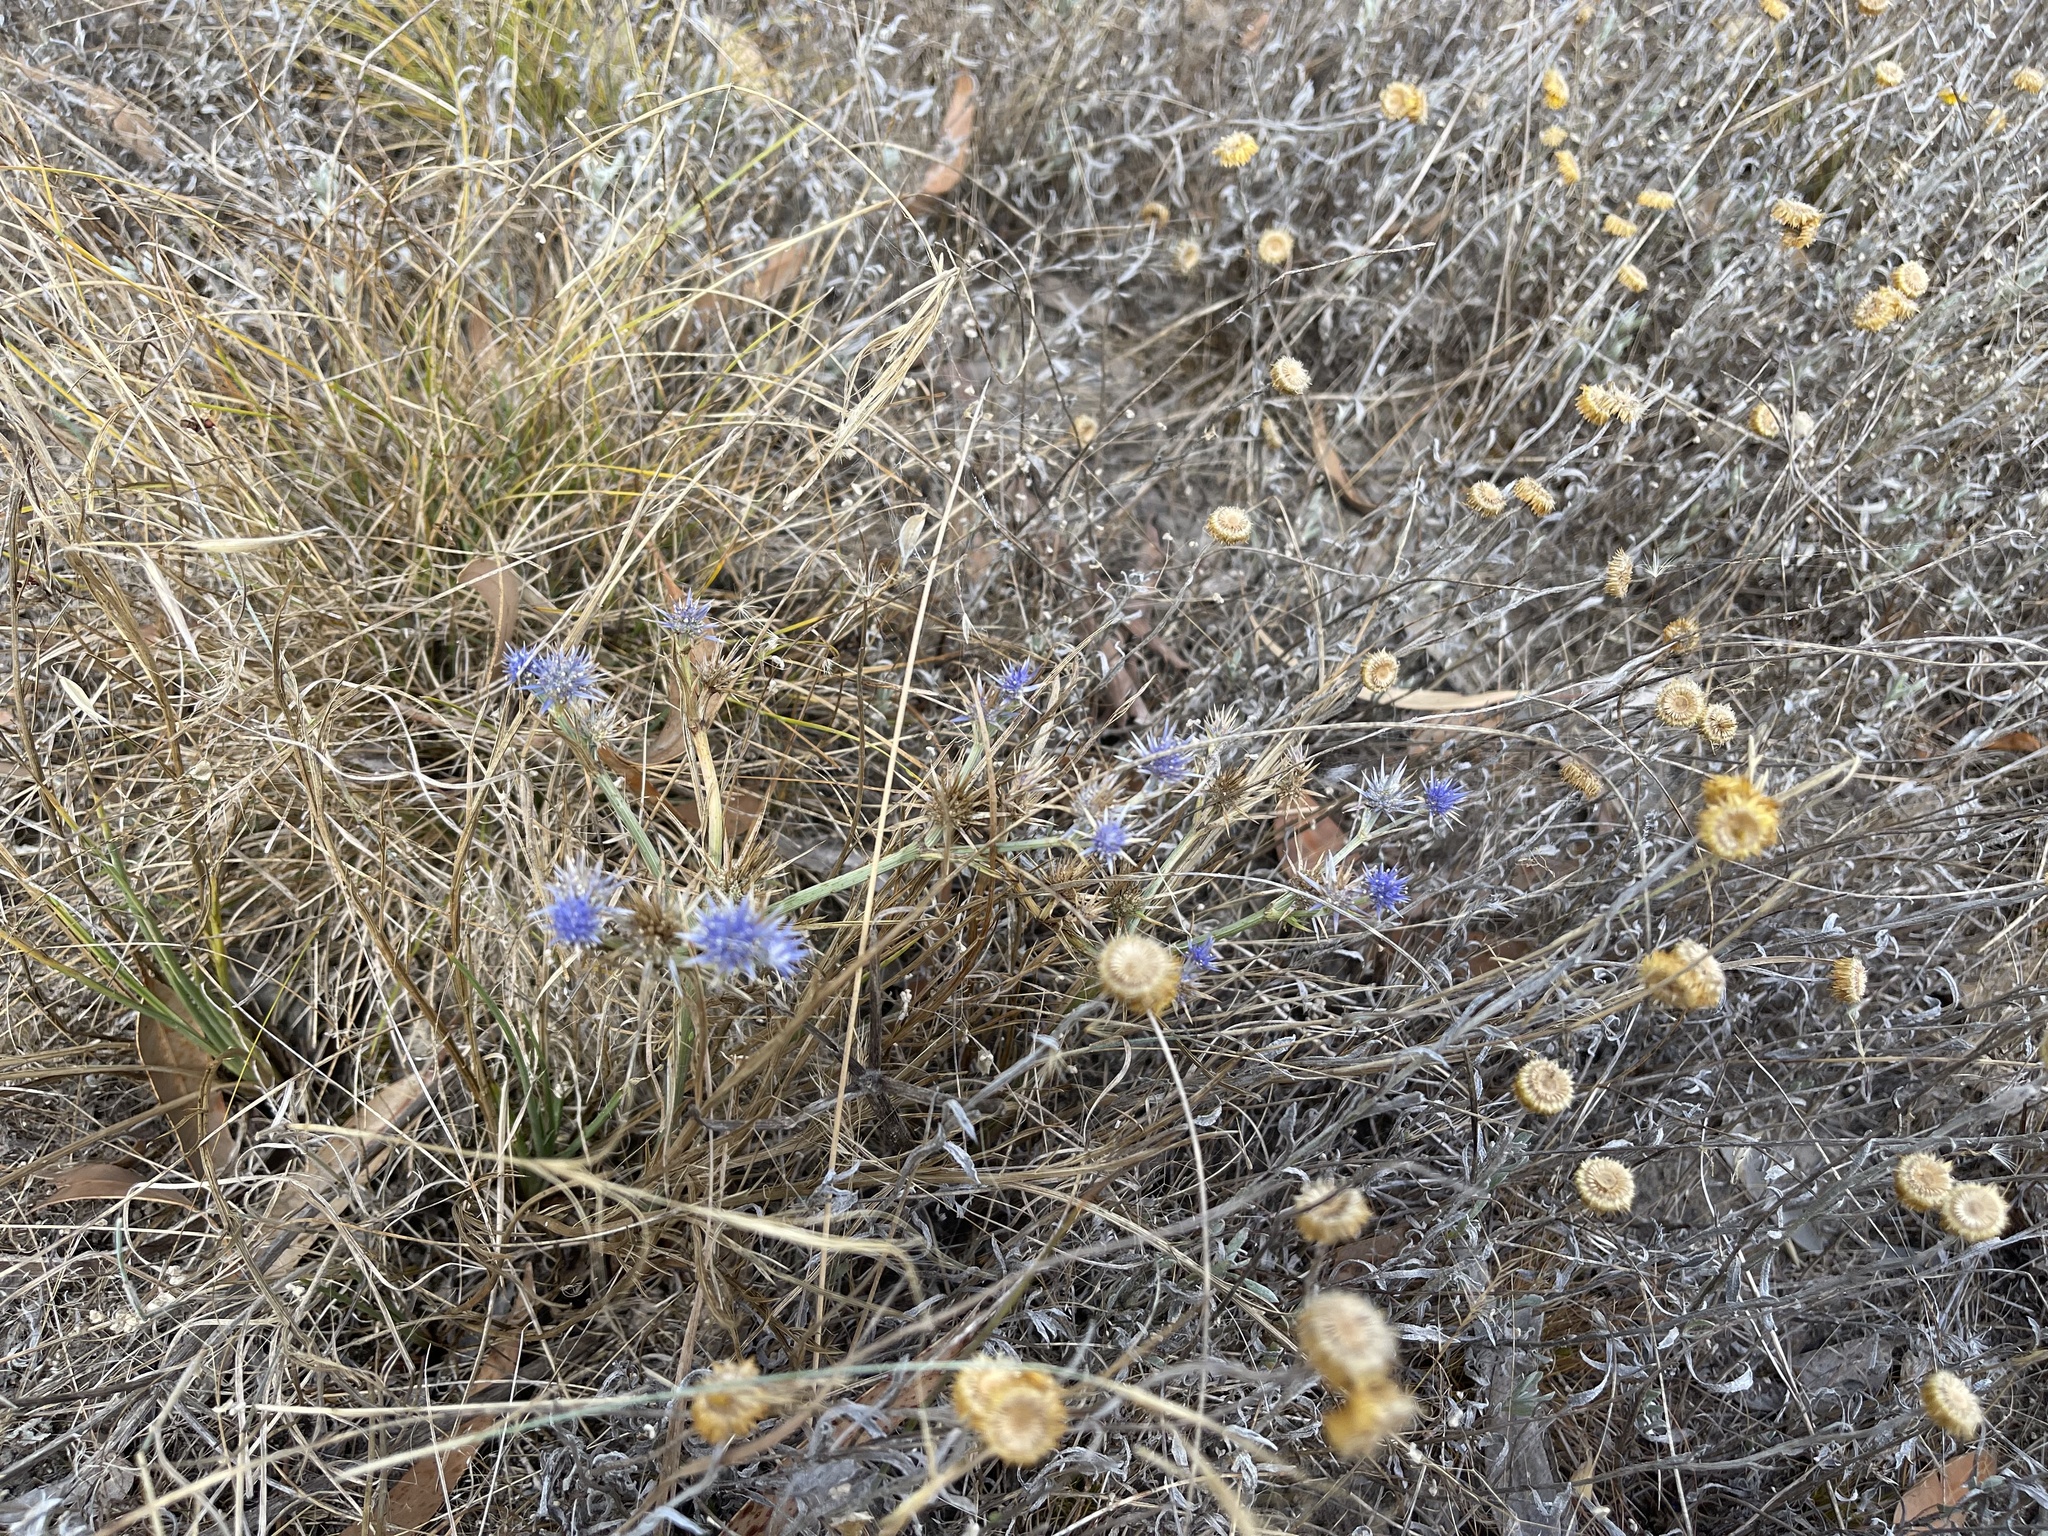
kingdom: Plantae
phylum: Tracheophyta
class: Magnoliopsida
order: Apiales
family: Apiaceae
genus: Eryngium
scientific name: Eryngium ovinum
